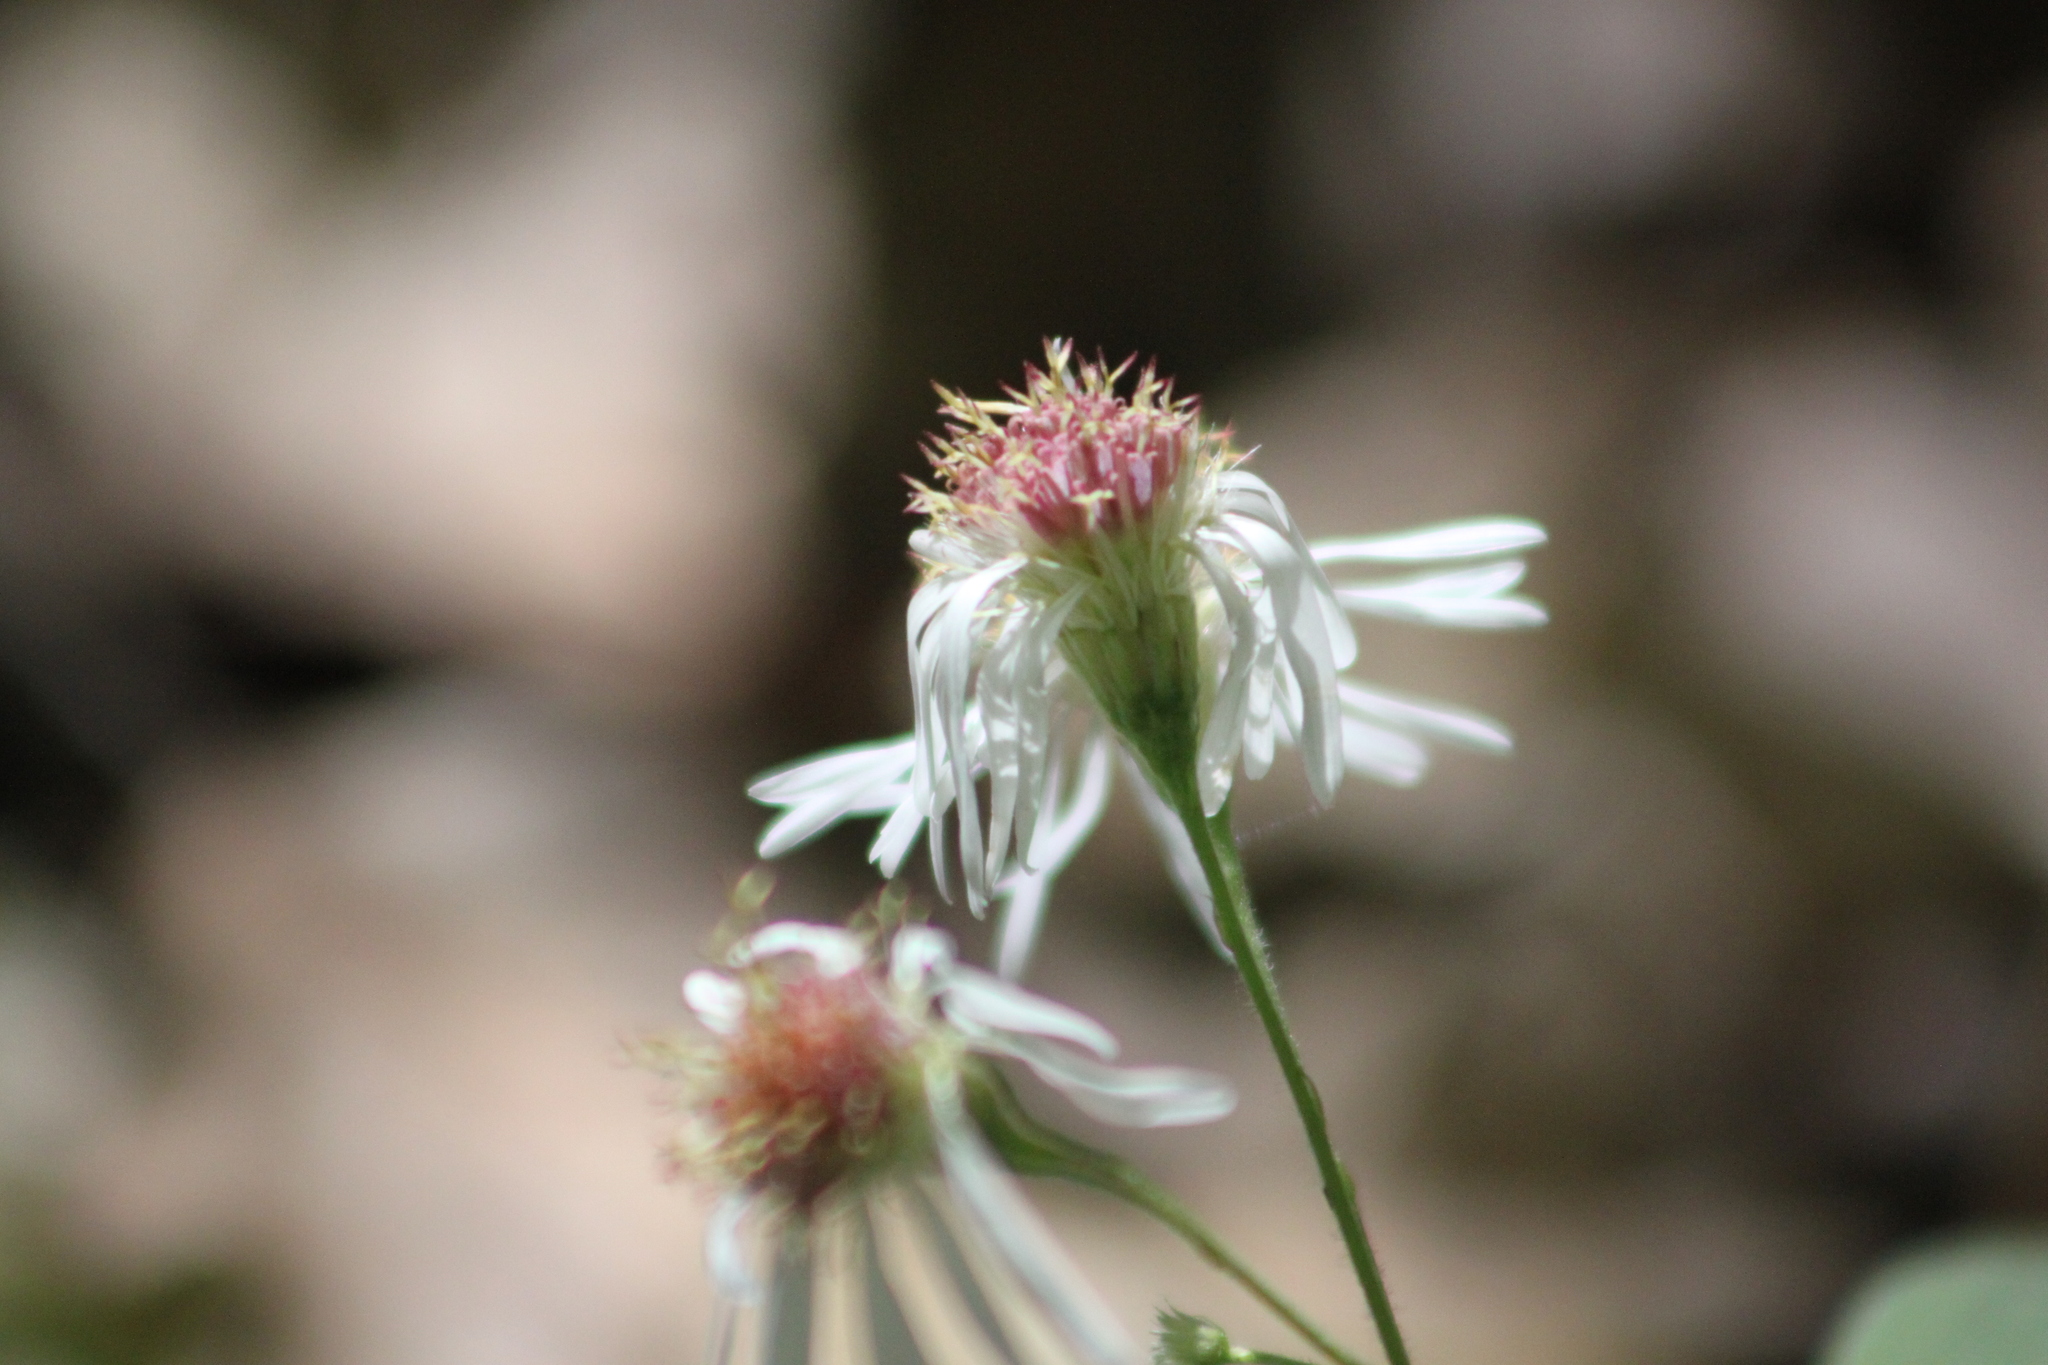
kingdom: Plantae
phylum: Tracheophyta
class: Magnoliopsida
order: Asterales
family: Asteraceae
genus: Oclemena
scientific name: Oclemena acuminata
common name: Mountain aster
